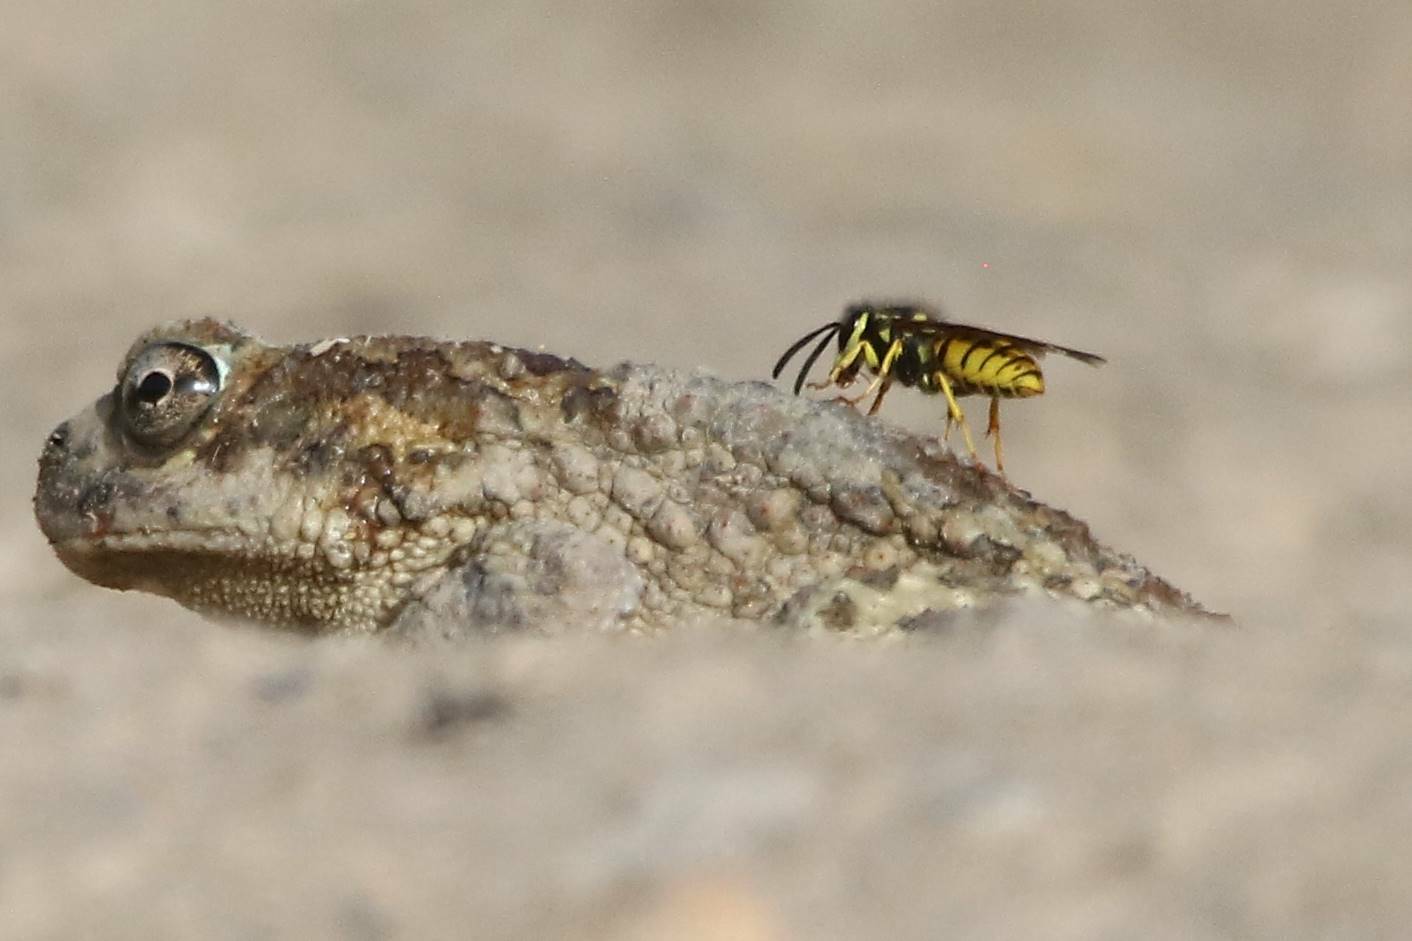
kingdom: Animalia
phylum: Chordata
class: Amphibia
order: Anura
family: Bufonidae
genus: Sclerophrys
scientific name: Sclerophrys mauritanica
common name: Berber toad
